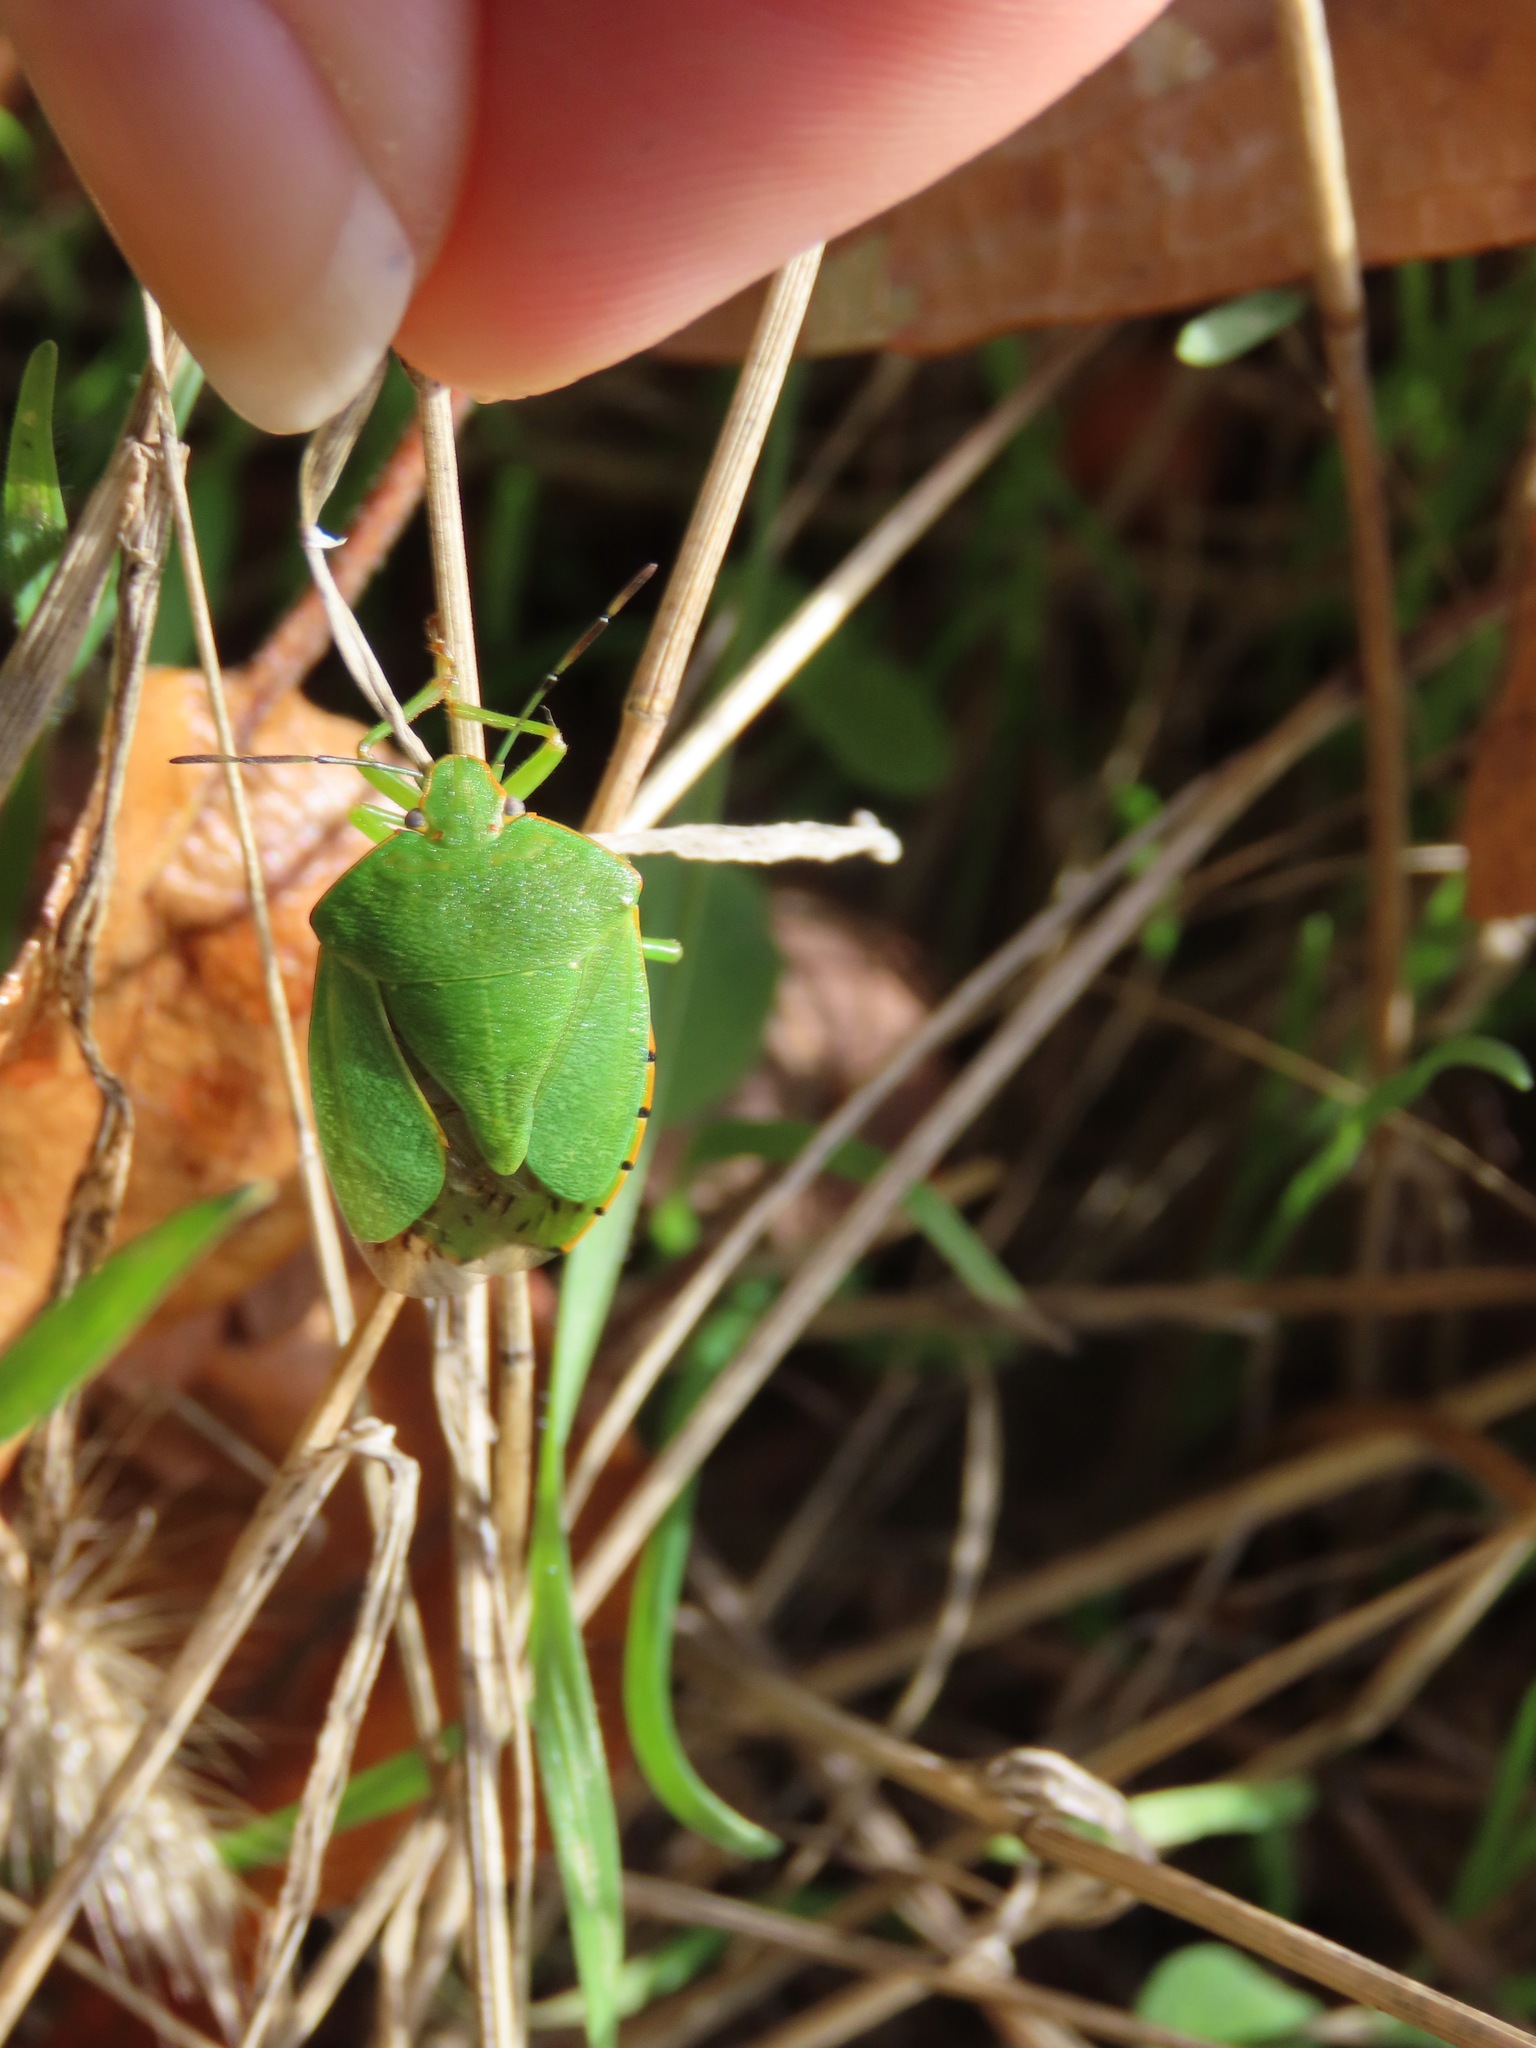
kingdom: Animalia
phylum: Arthropoda
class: Insecta
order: Hemiptera
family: Pentatomidae
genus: Chinavia
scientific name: Chinavia hilaris
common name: Green stink bug
